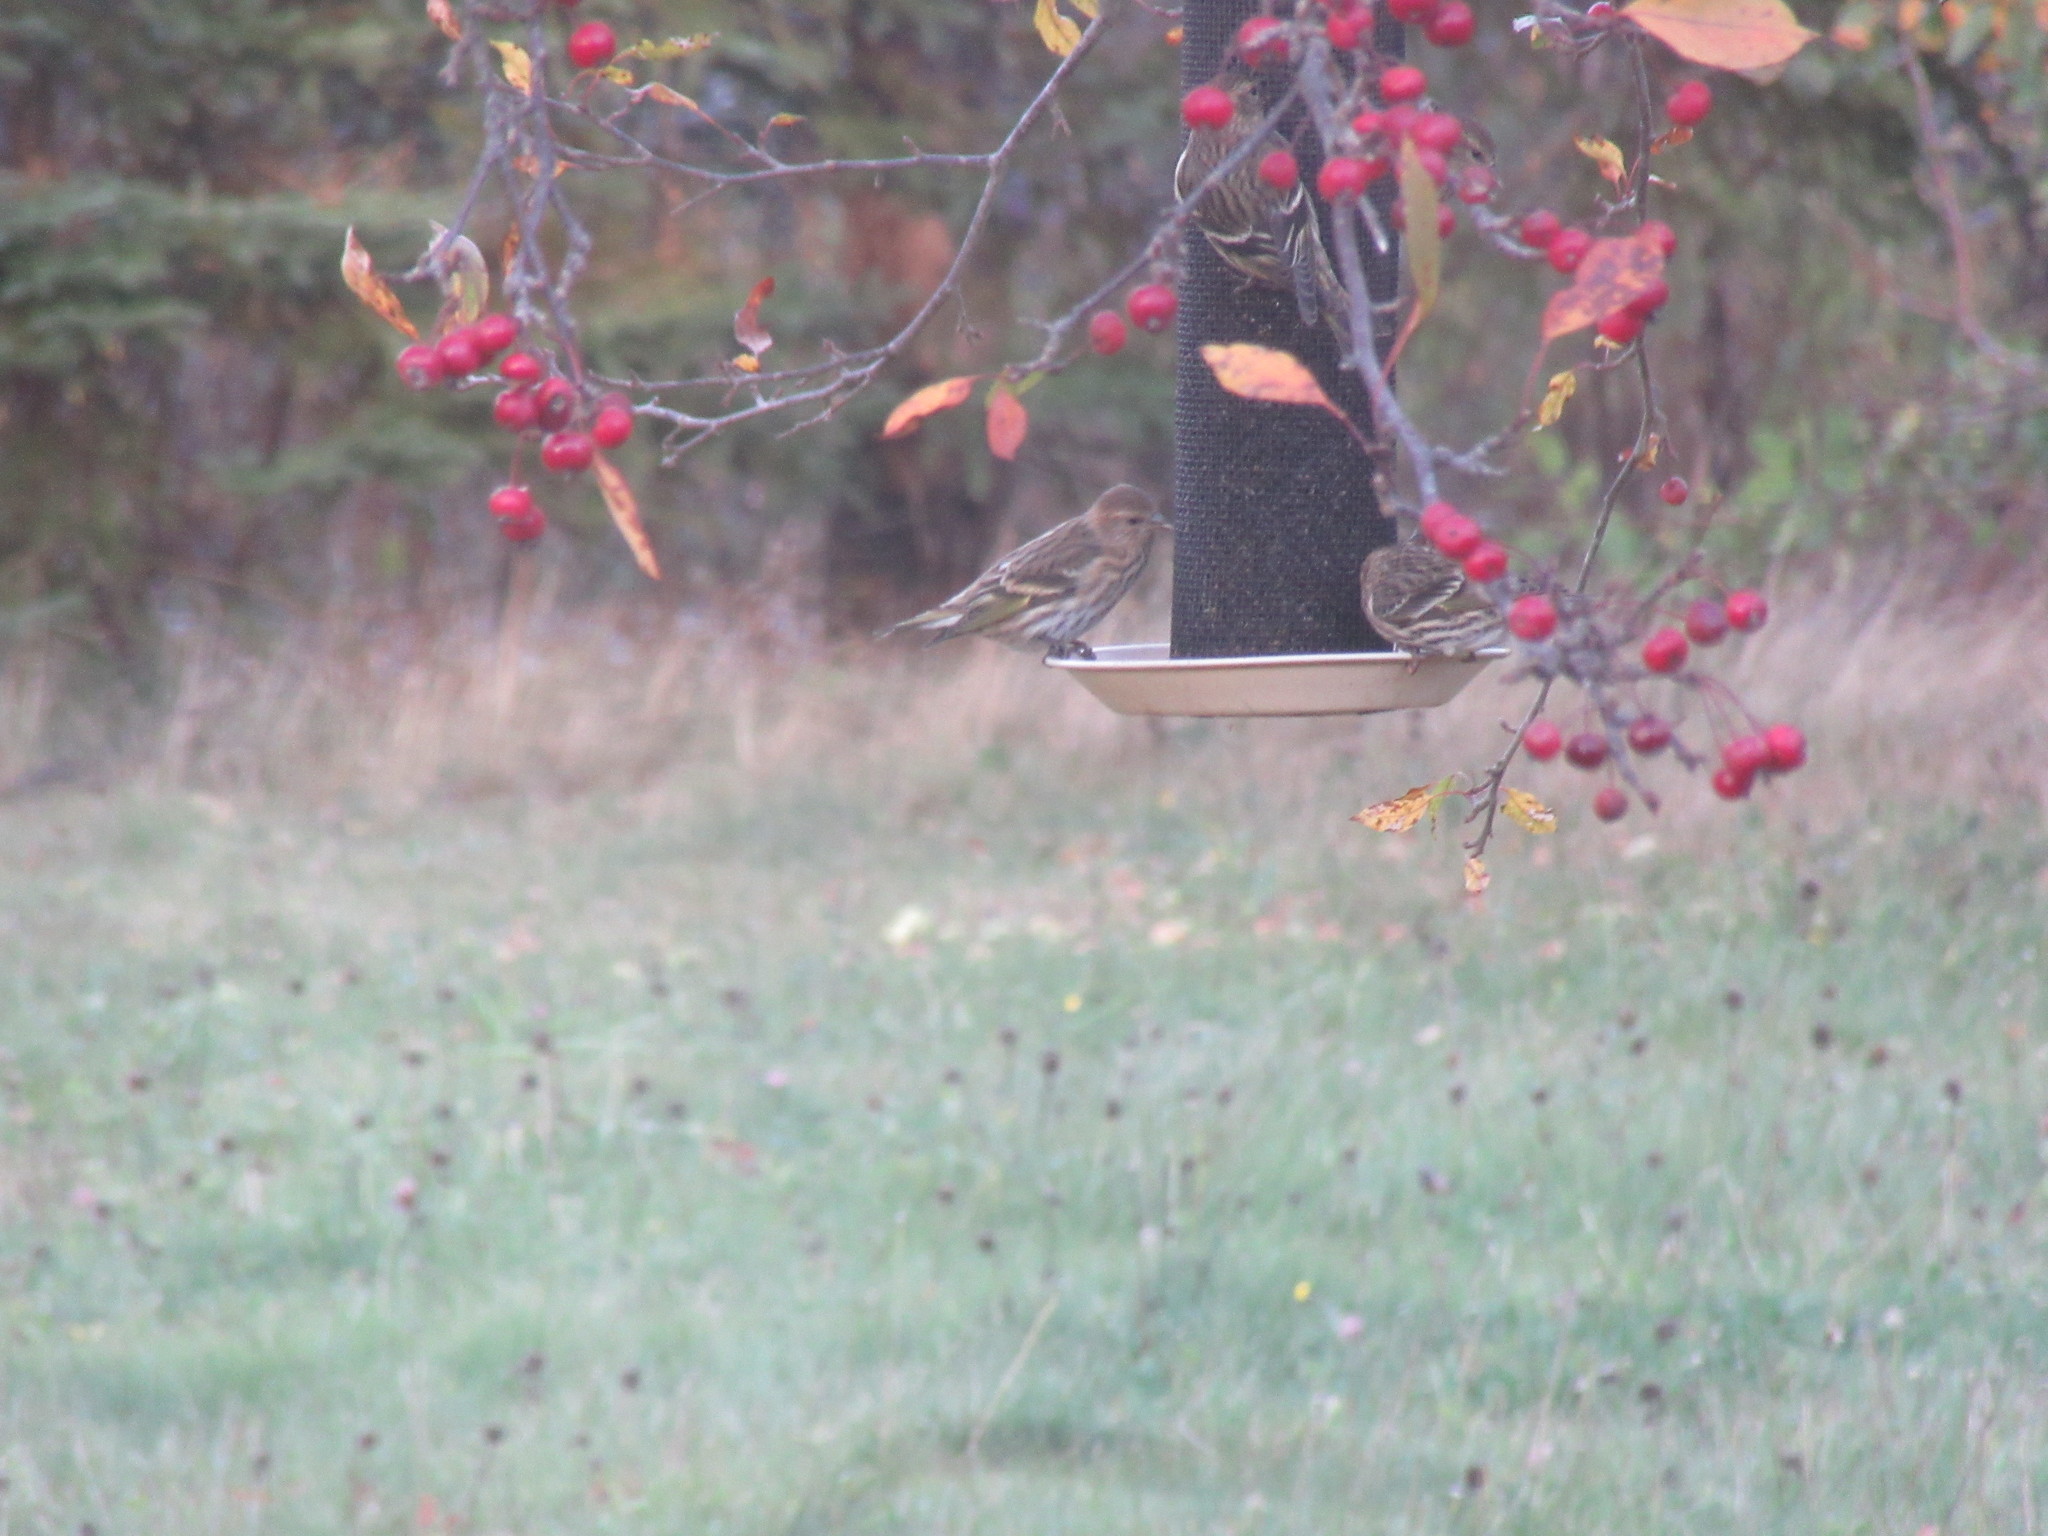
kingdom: Animalia
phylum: Chordata
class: Aves
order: Passeriformes
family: Fringillidae
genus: Spinus
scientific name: Spinus pinus
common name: Pine siskin
